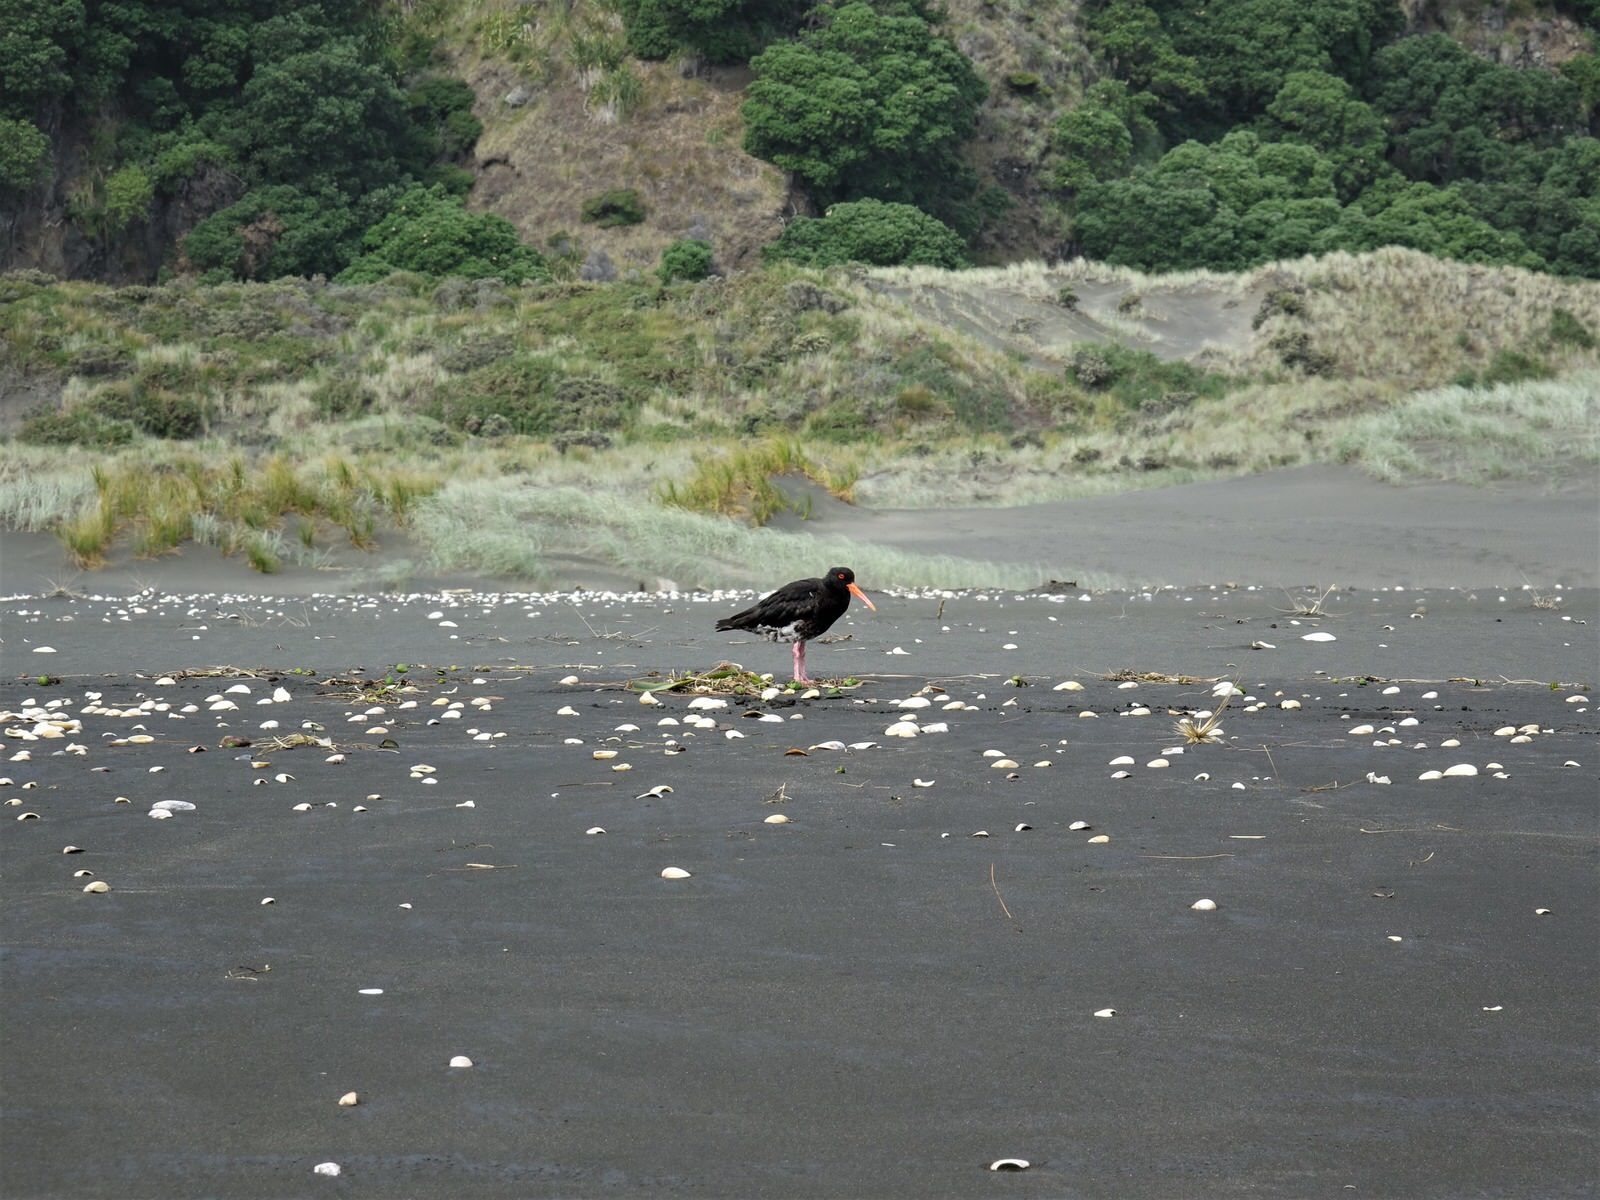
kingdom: Animalia
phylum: Chordata
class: Aves
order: Charadriiformes
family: Haematopodidae
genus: Haematopus
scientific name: Haematopus unicolor
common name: Variable oystercatcher
